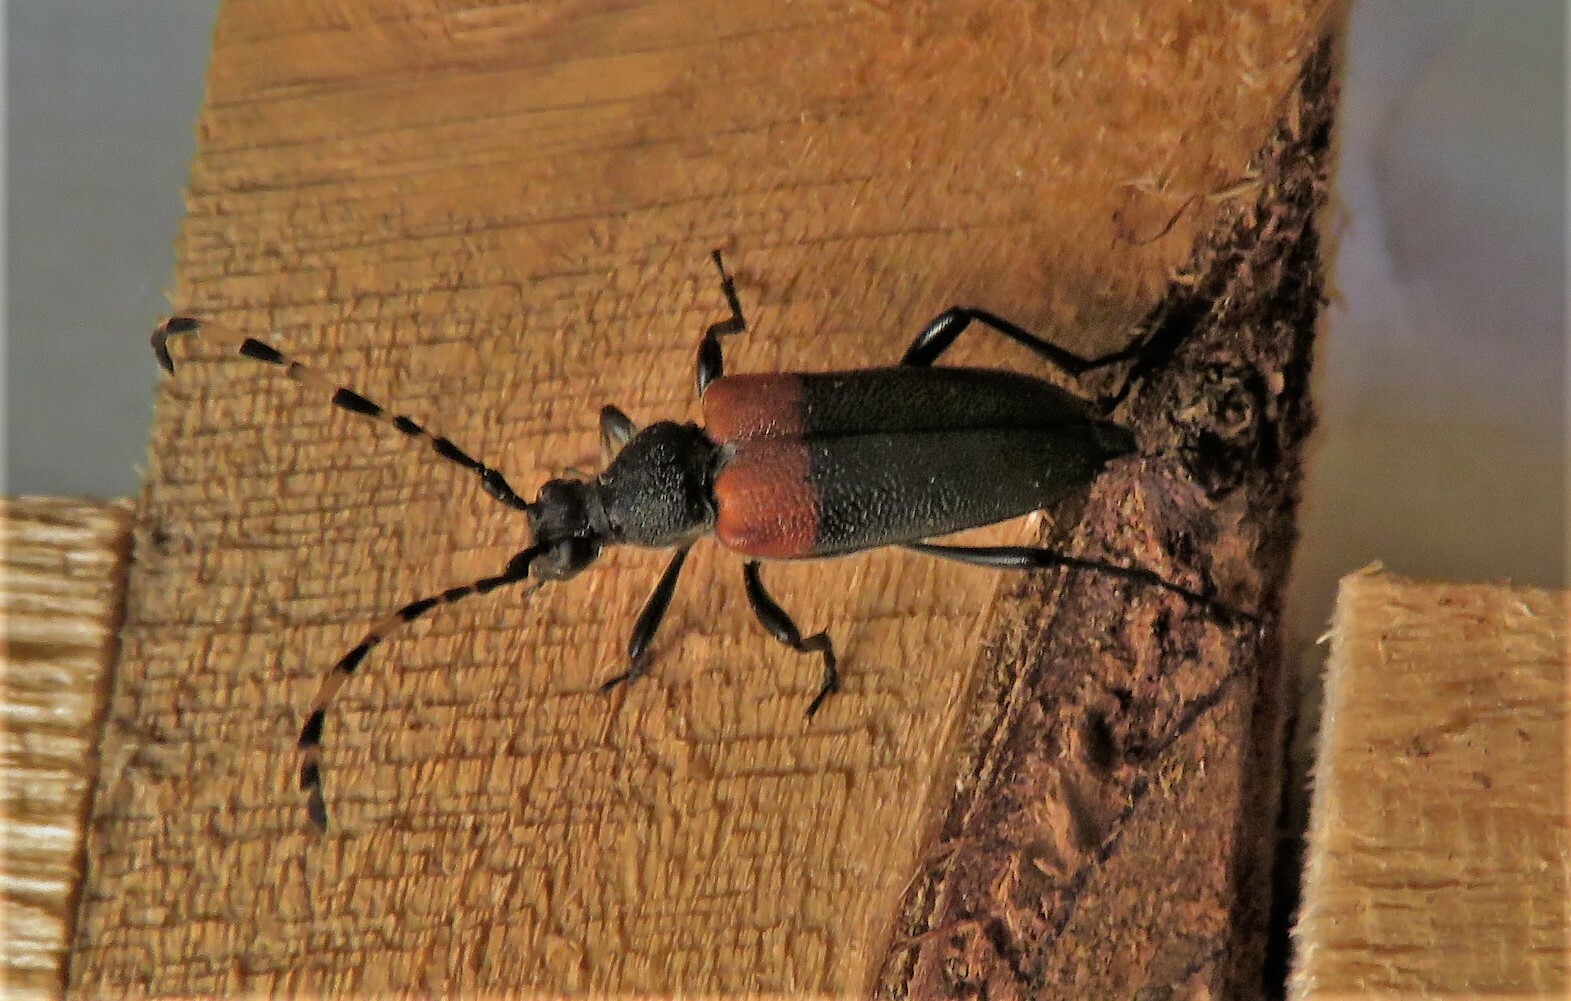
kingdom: Animalia
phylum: Arthropoda
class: Insecta
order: Coleoptera
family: Cerambycidae
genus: Stictoleptura
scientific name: Stictoleptura canadensis
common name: Red-shouldered pine borer
